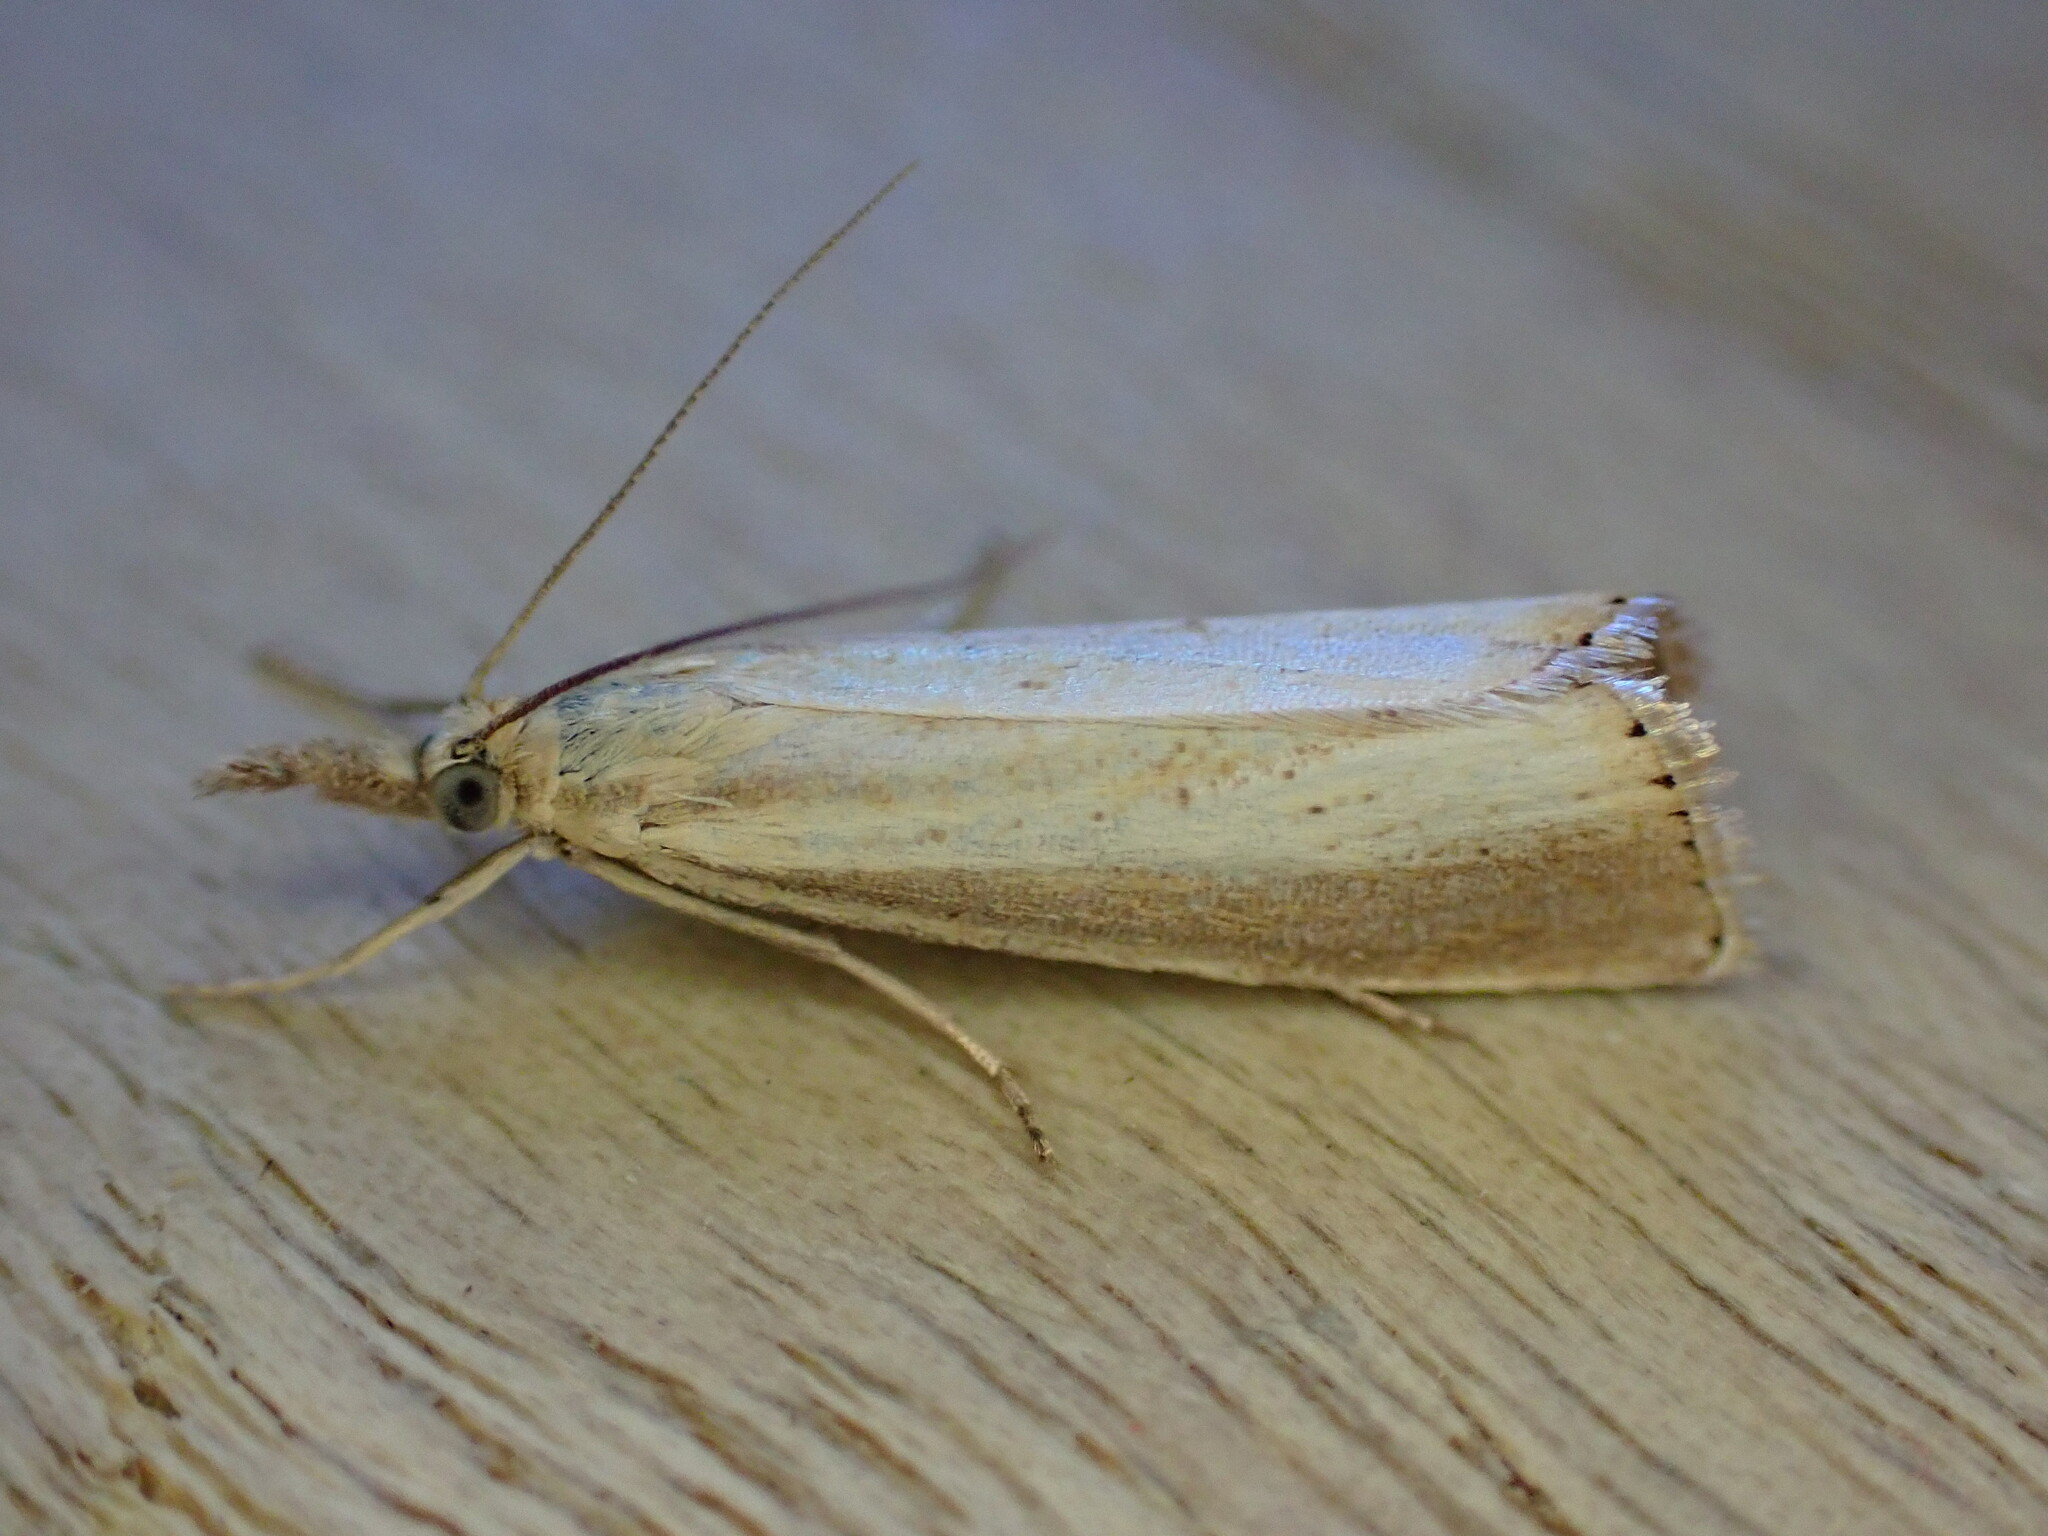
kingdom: Animalia
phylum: Arthropoda
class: Insecta
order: Lepidoptera
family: Crambidae
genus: Agriphila
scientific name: Agriphila straminella
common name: Straw grass-veneer
